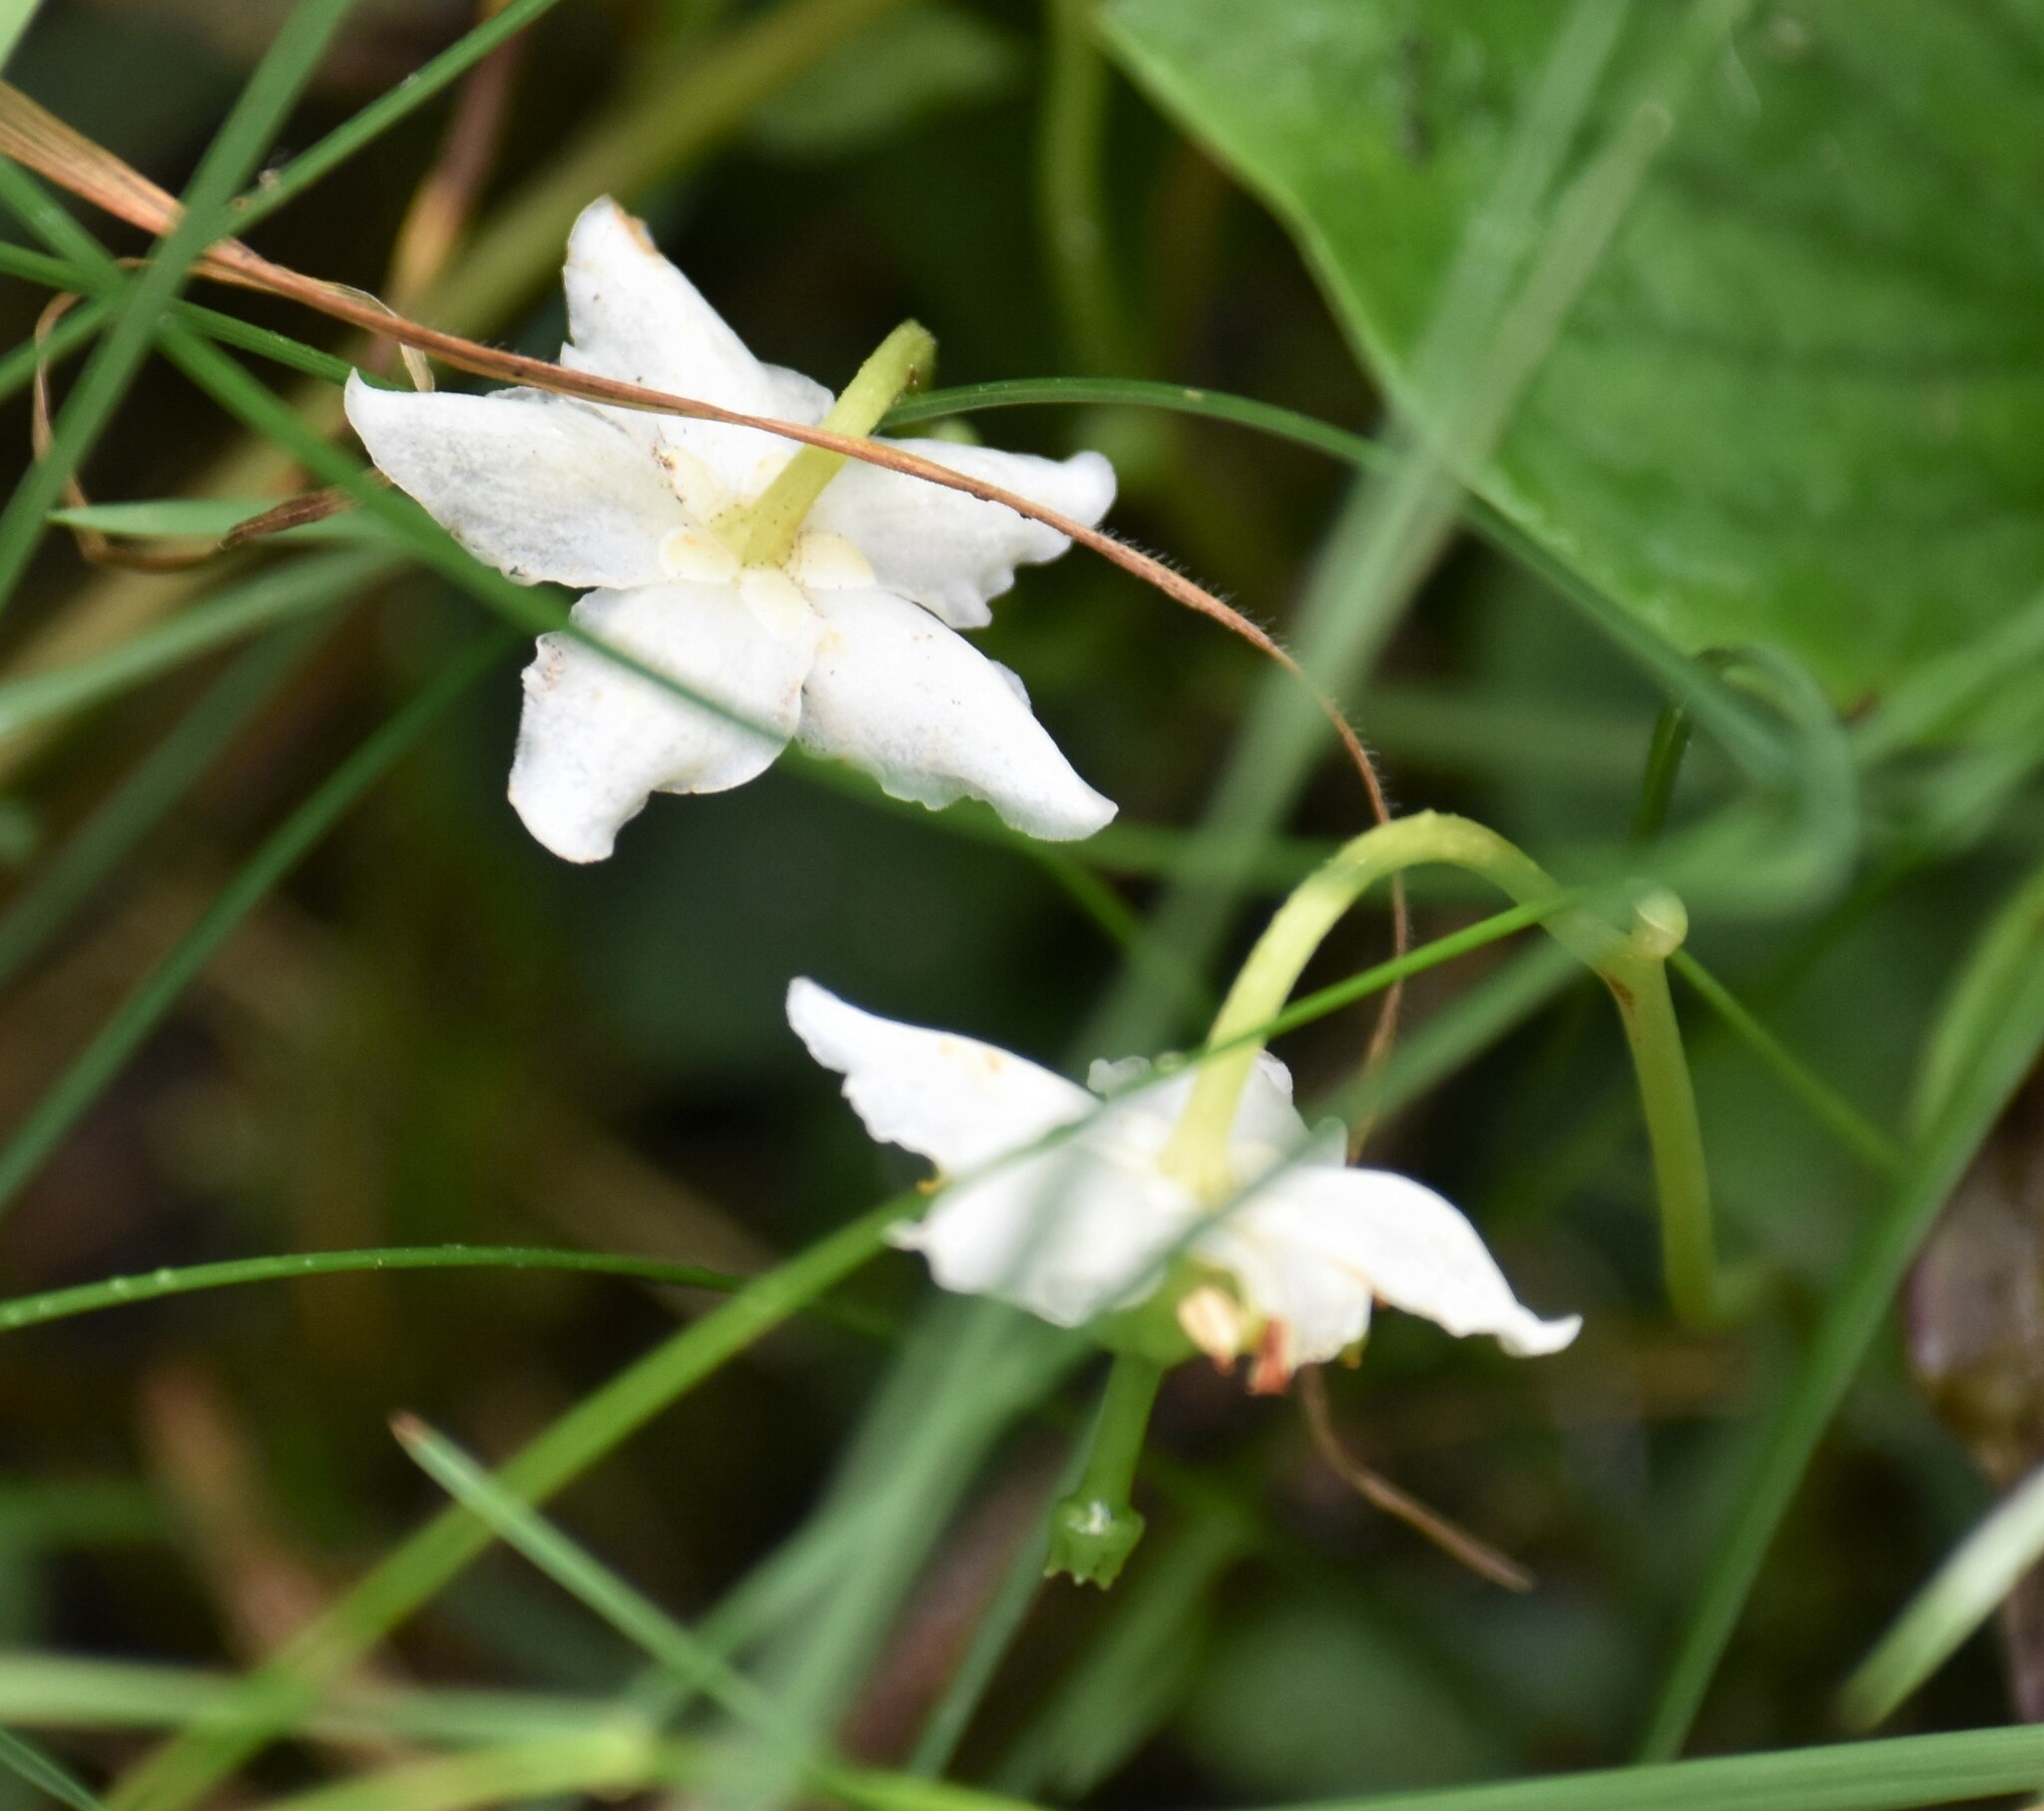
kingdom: Plantae
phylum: Tracheophyta
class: Magnoliopsida
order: Ericales
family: Ericaceae
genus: Moneses
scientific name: Moneses uniflora
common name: One-flowered wintergreen
